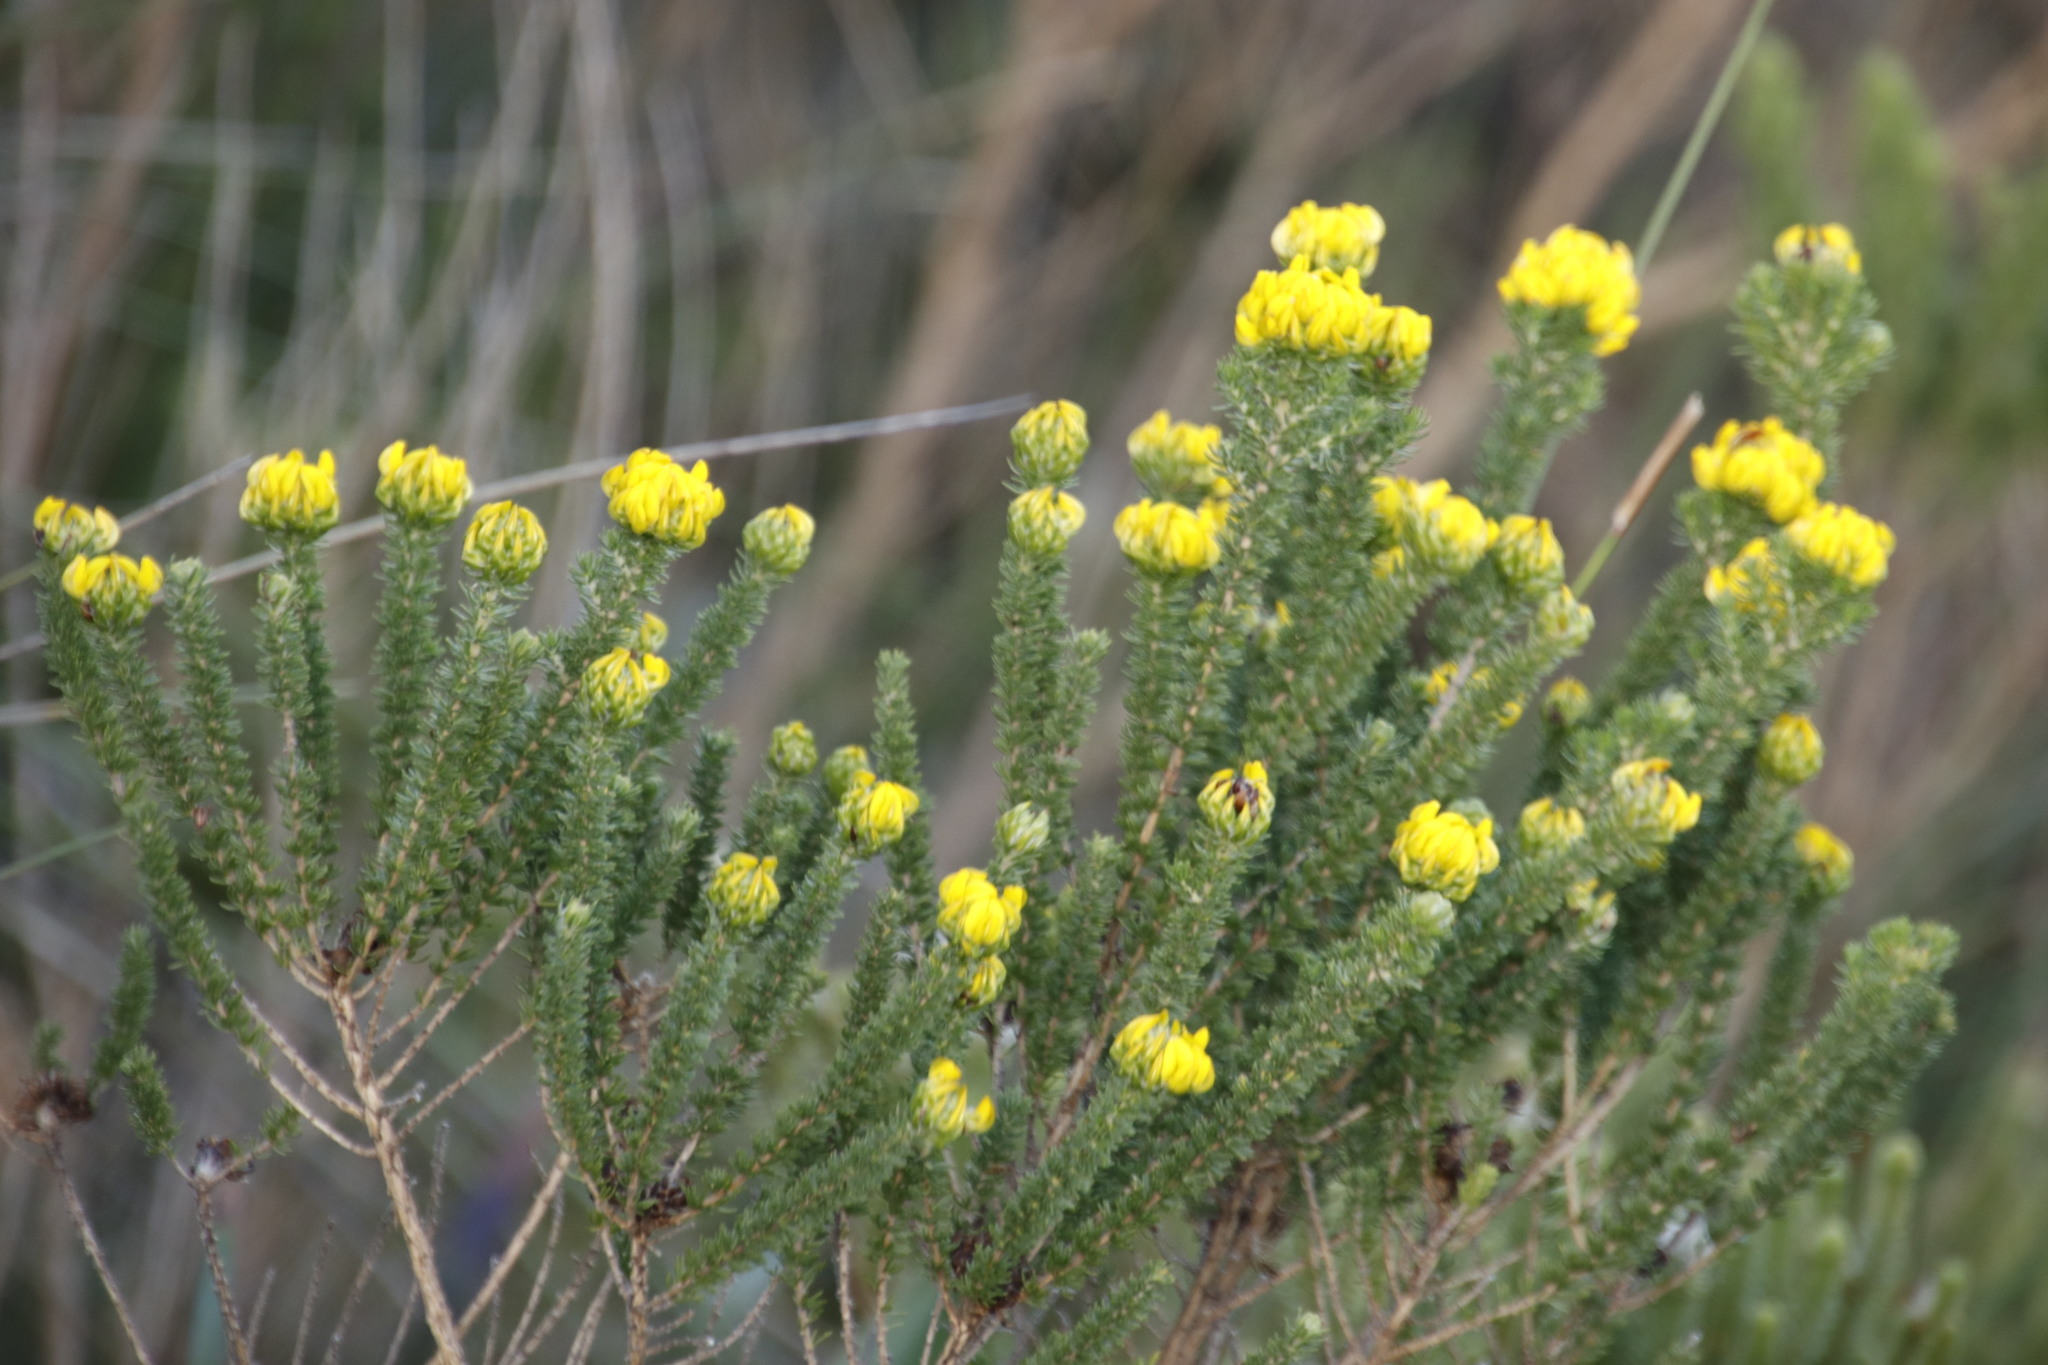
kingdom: Plantae
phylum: Tracheophyta
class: Magnoliopsida
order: Fabales
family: Fabaceae
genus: Aspalathus
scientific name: Aspalathus capitata
